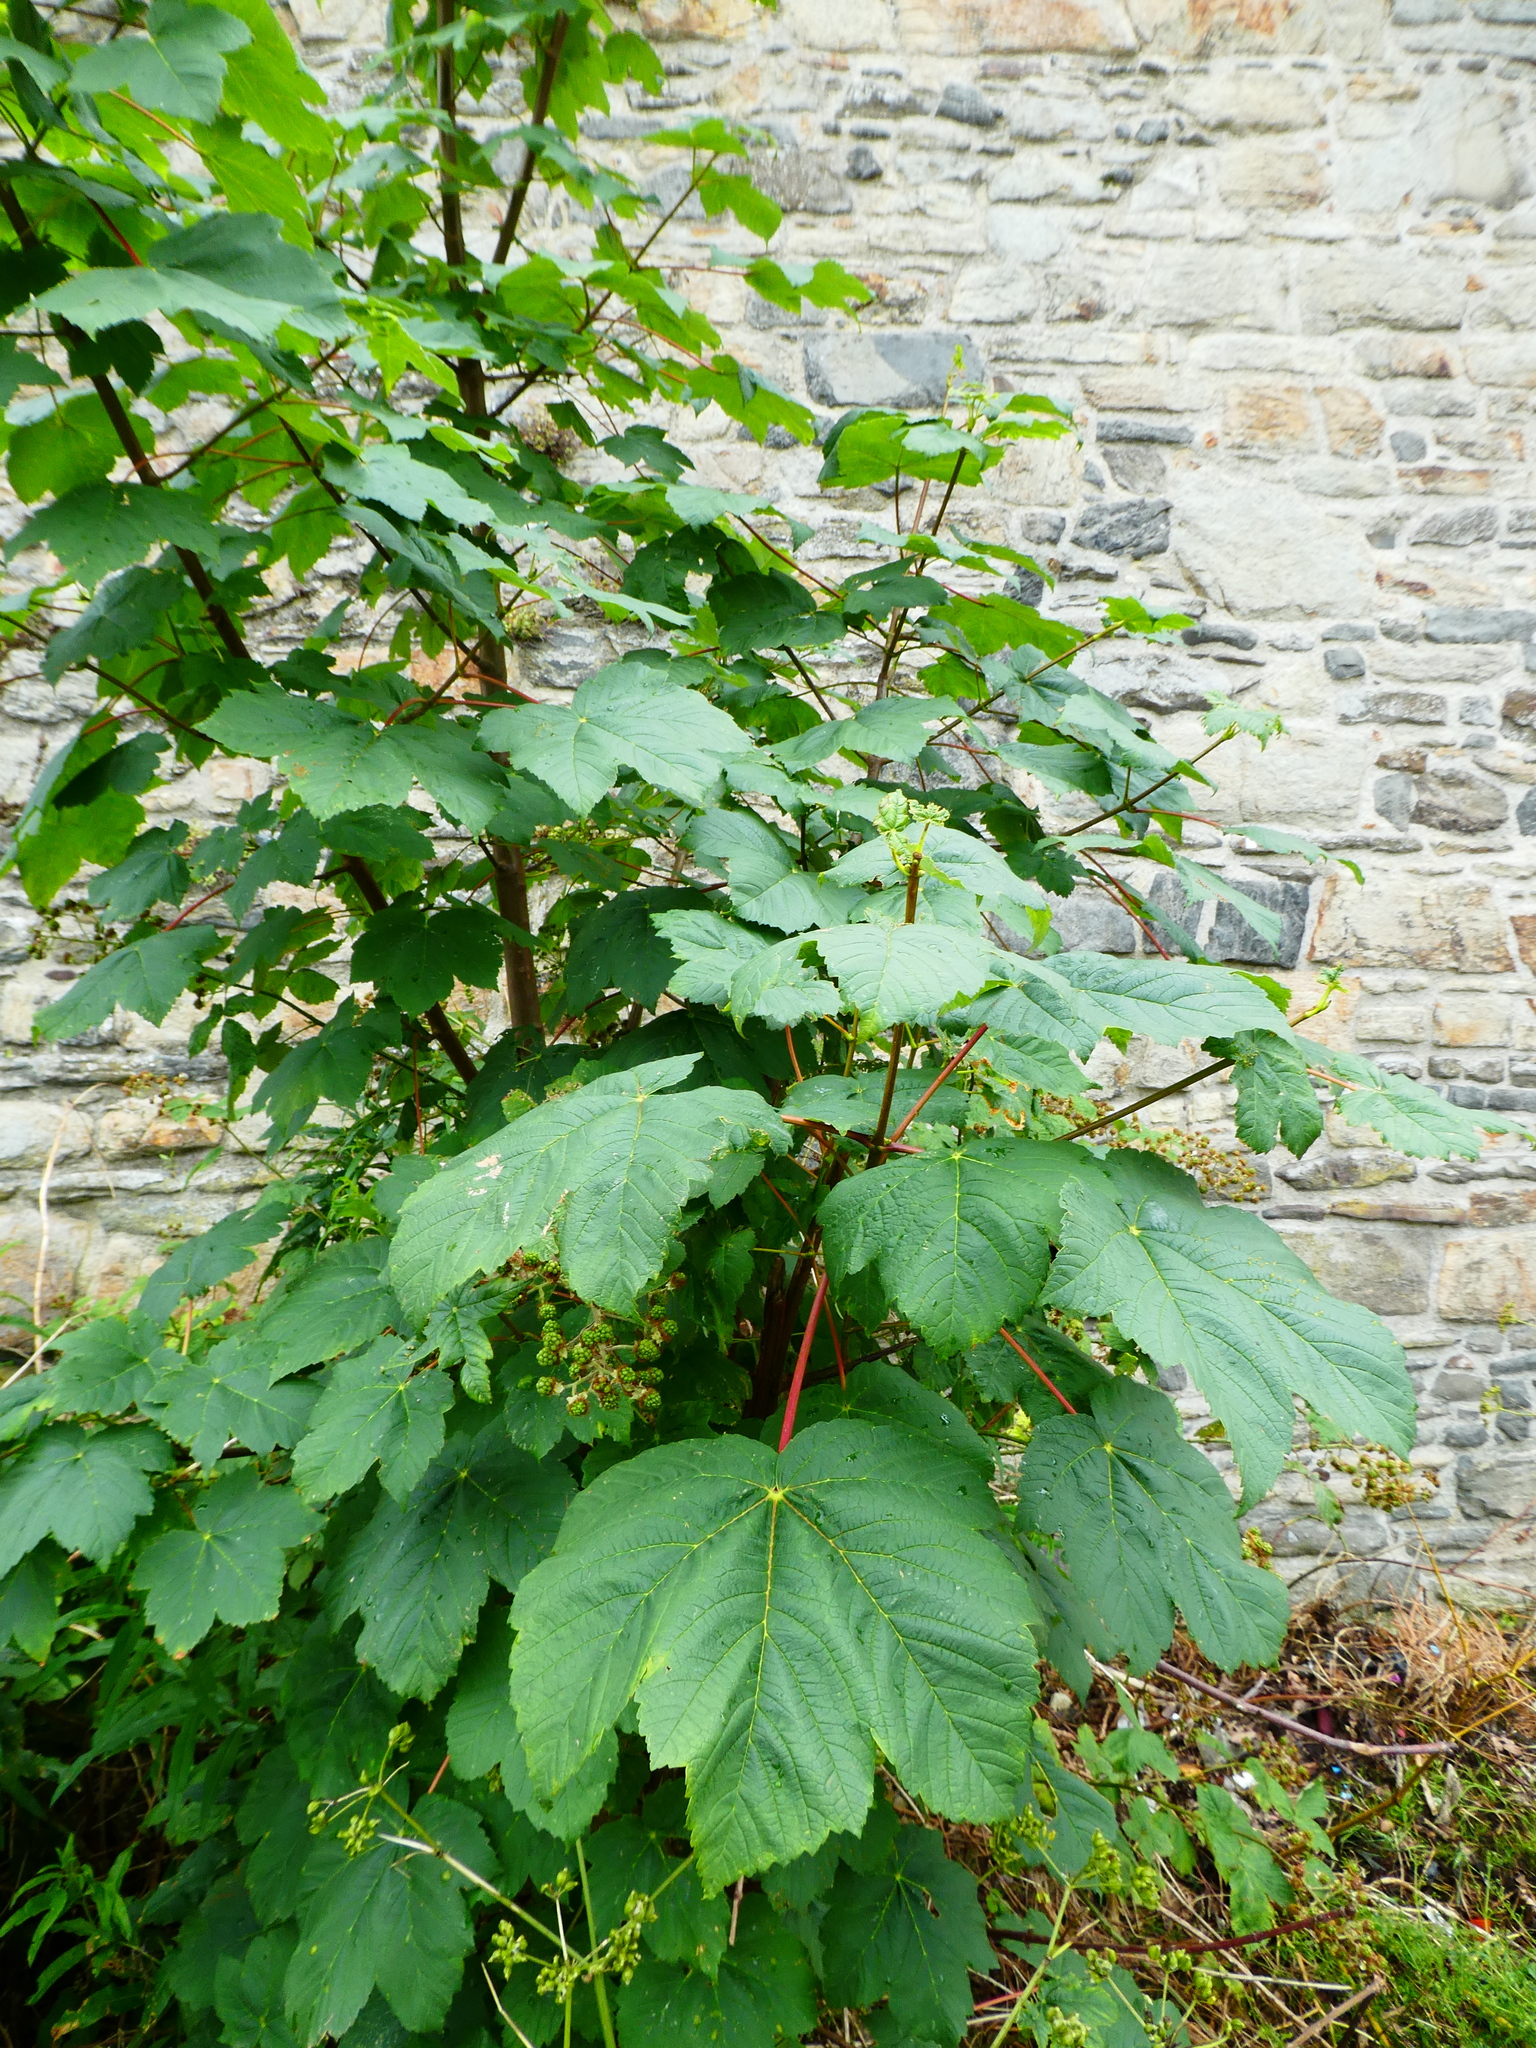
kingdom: Plantae
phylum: Tracheophyta
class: Magnoliopsida
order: Sapindales
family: Sapindaceae
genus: Acer
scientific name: Acer pseudoplatanus
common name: Sycamore
